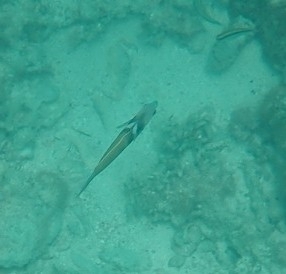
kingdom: Animalia
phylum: Chordata
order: Perciformes
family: Labridae
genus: Thalassoma
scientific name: Thalassoma bifasciatum
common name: Bluehead wrasse
